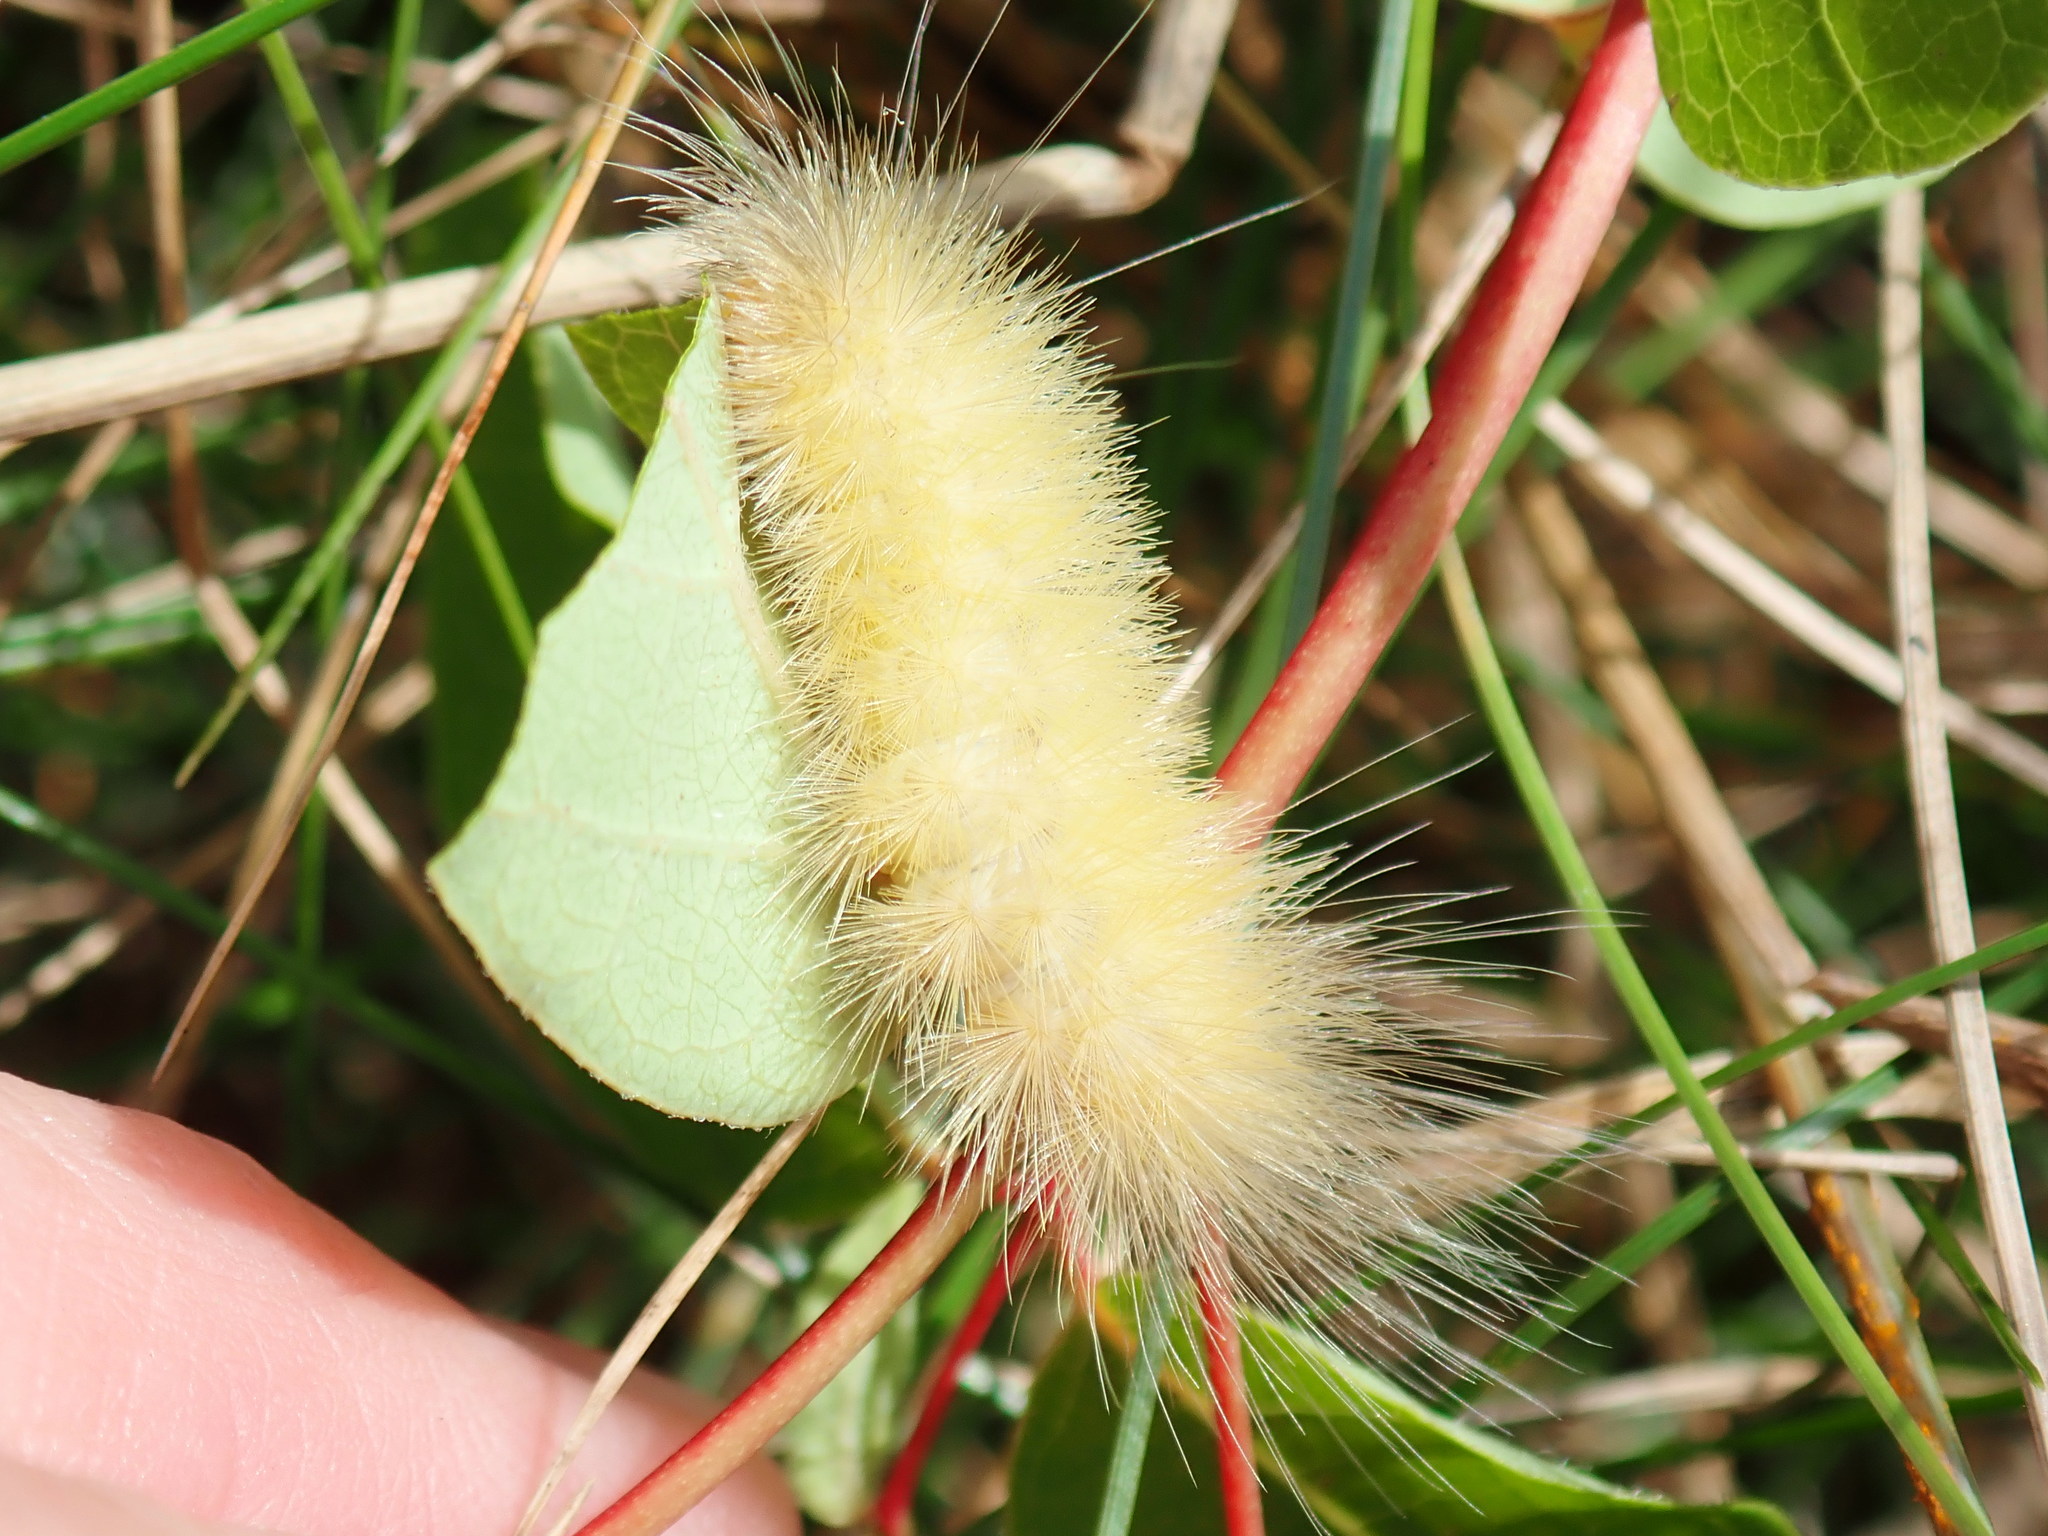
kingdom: Animalia
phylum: Arthropoda
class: Insecta
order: Lepidoptera
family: Erebidae
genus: Spilosoma
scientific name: Spilosoma virginica
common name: Virginia tiger moth
